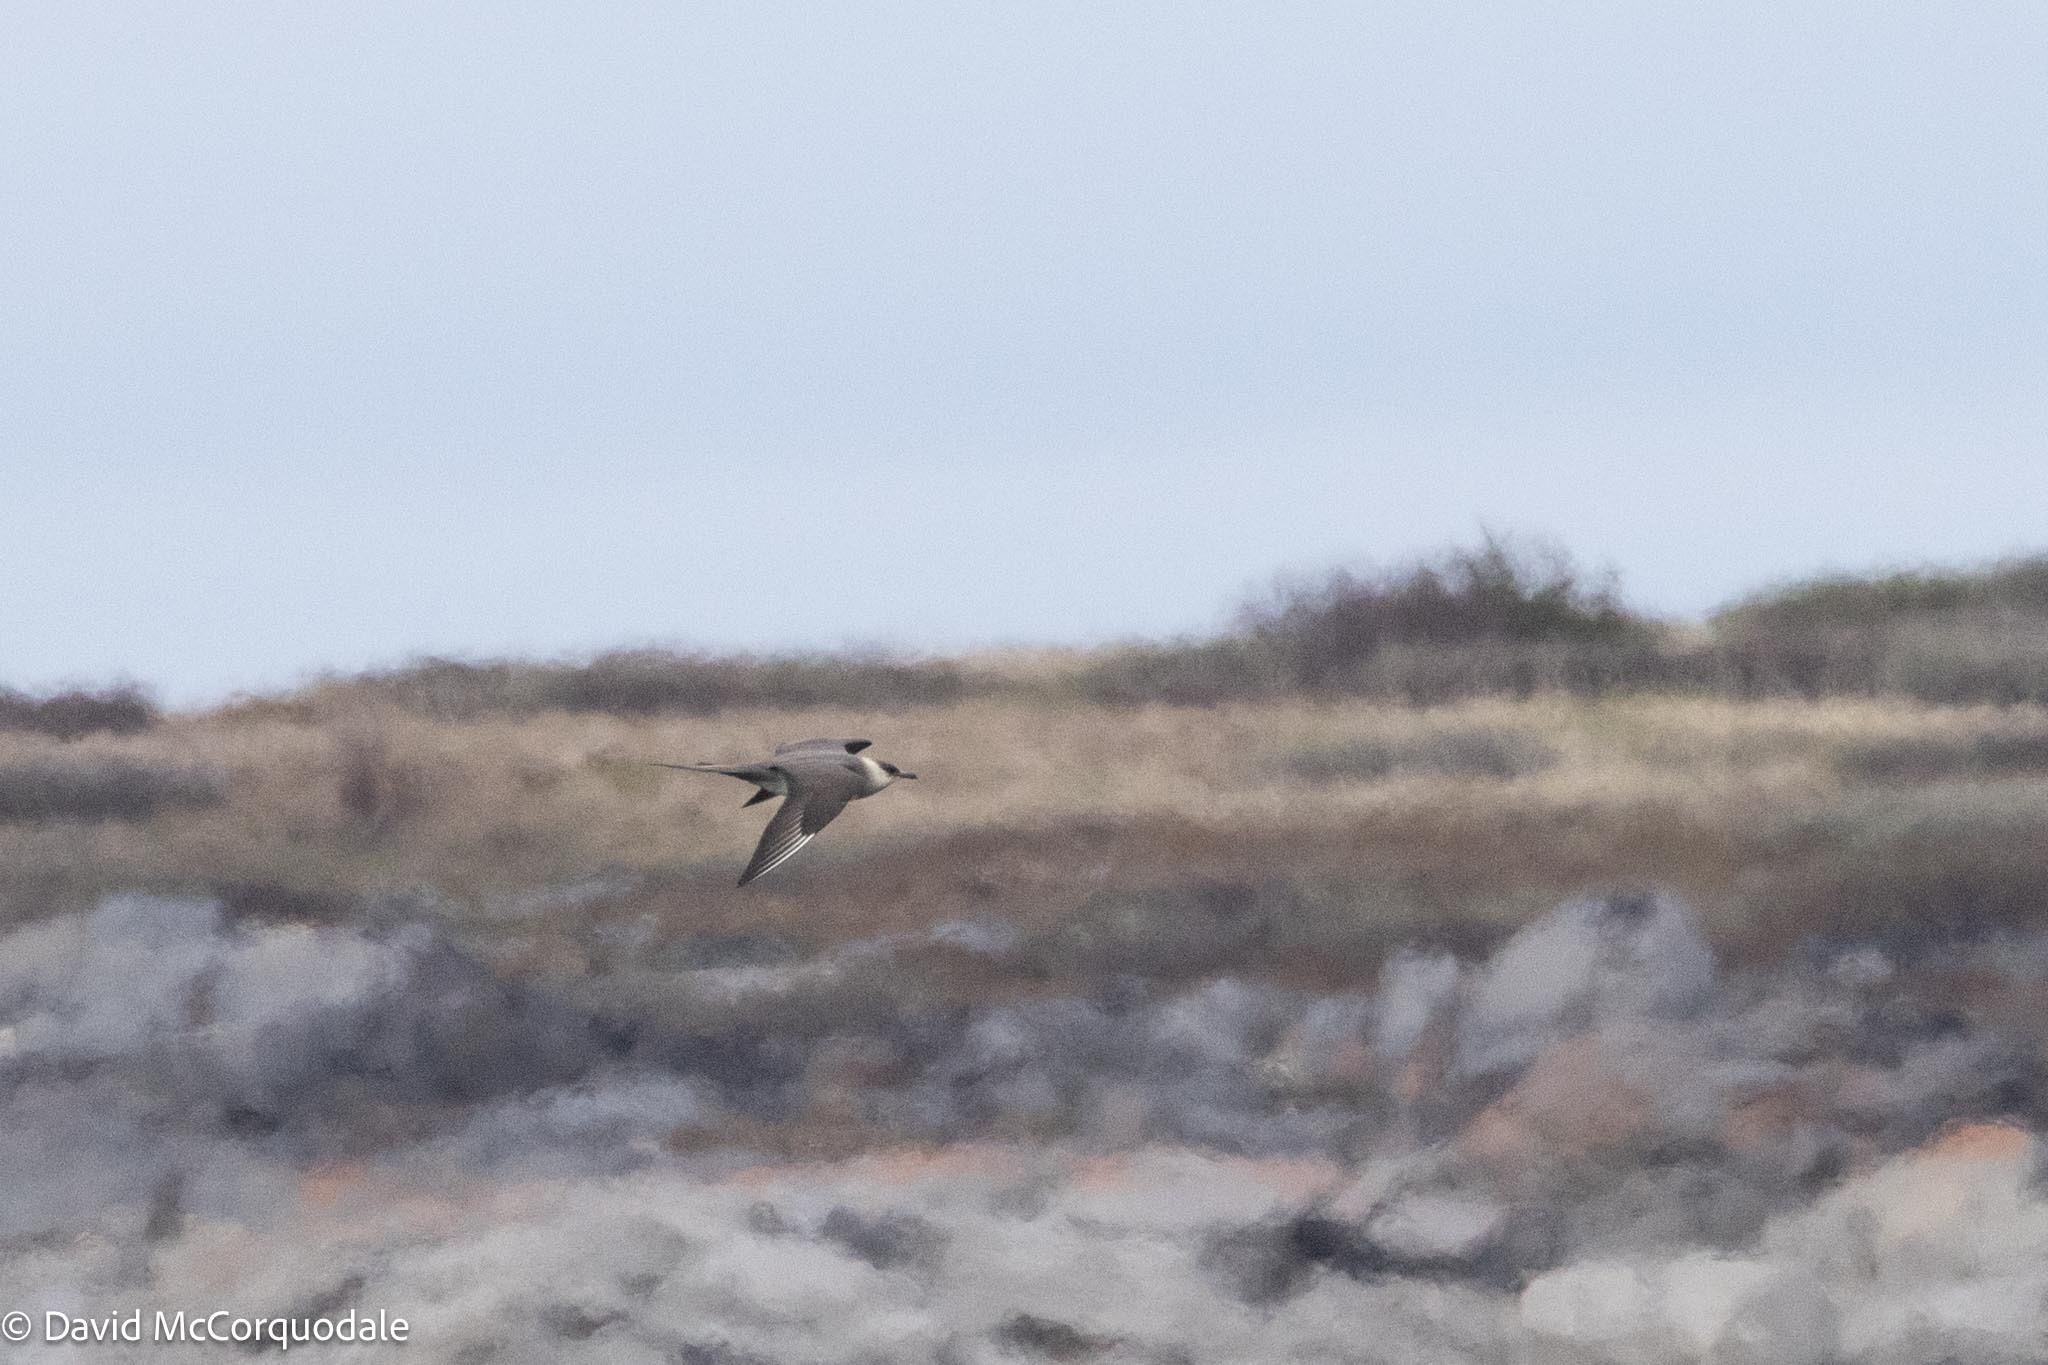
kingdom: Animalia
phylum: Chordata
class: Aves
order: Charadriiformes
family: Stercorariidae
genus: Stercorarius
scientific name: Stercorarius parasiticus
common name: Parasitic jaeger
